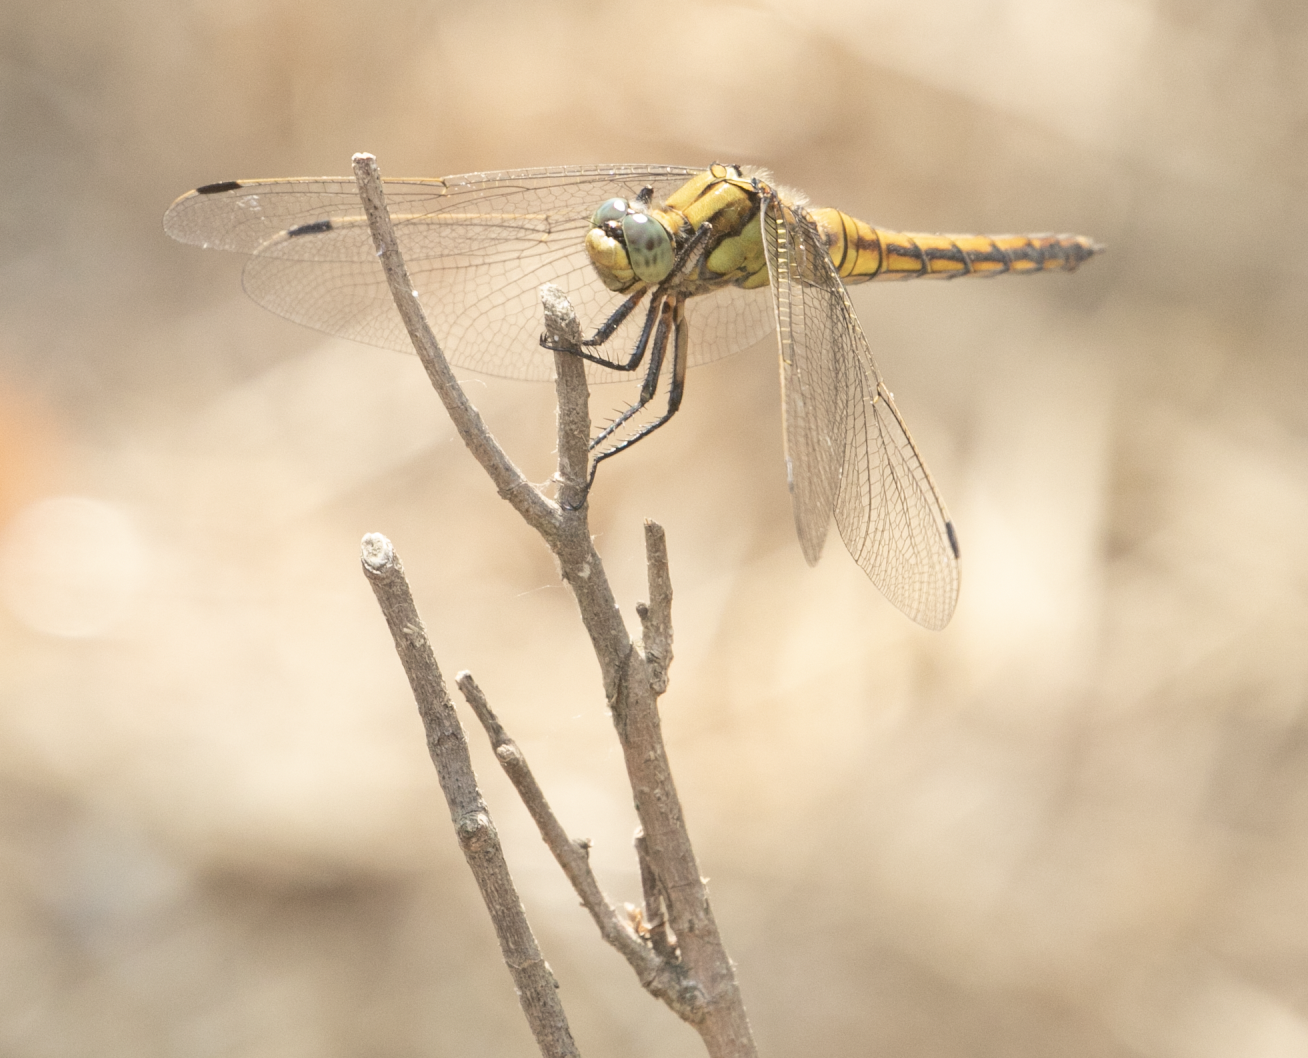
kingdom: Animalia
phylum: Arthropoda
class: Insecta
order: Odonata
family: Libellulidae
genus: Orthetrum
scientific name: Orthetrum cancellatum
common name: Black-tailed skimmer
